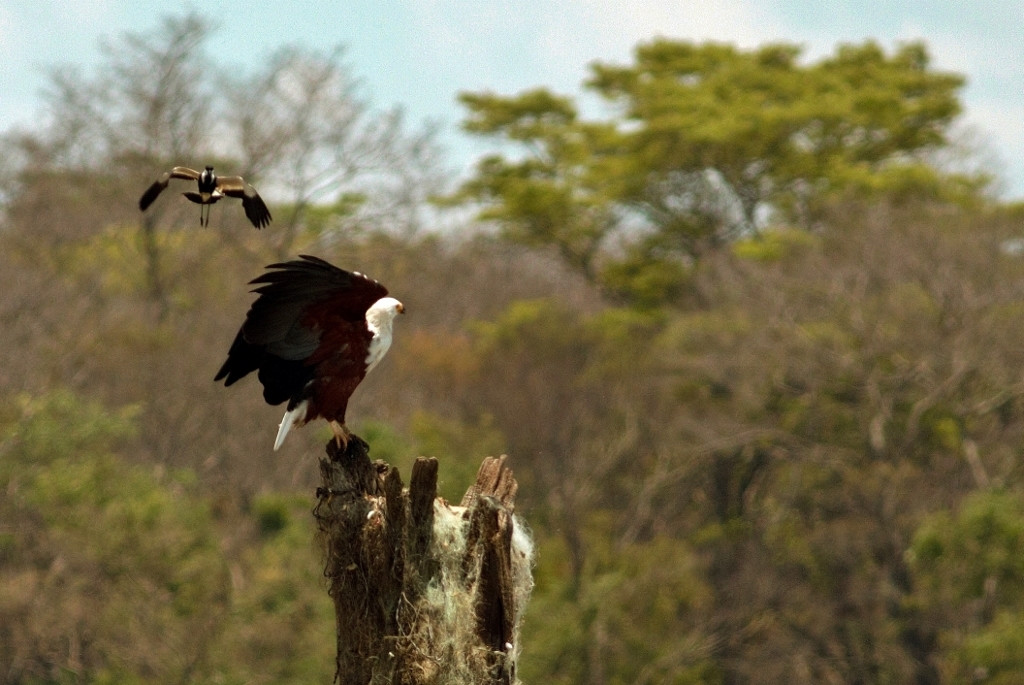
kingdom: Animalia
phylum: Chordata
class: Aves
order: Charadriiformes
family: Charadriidae
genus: Vanellus
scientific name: Vanellus spinosus
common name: Spur-winged lapwing
